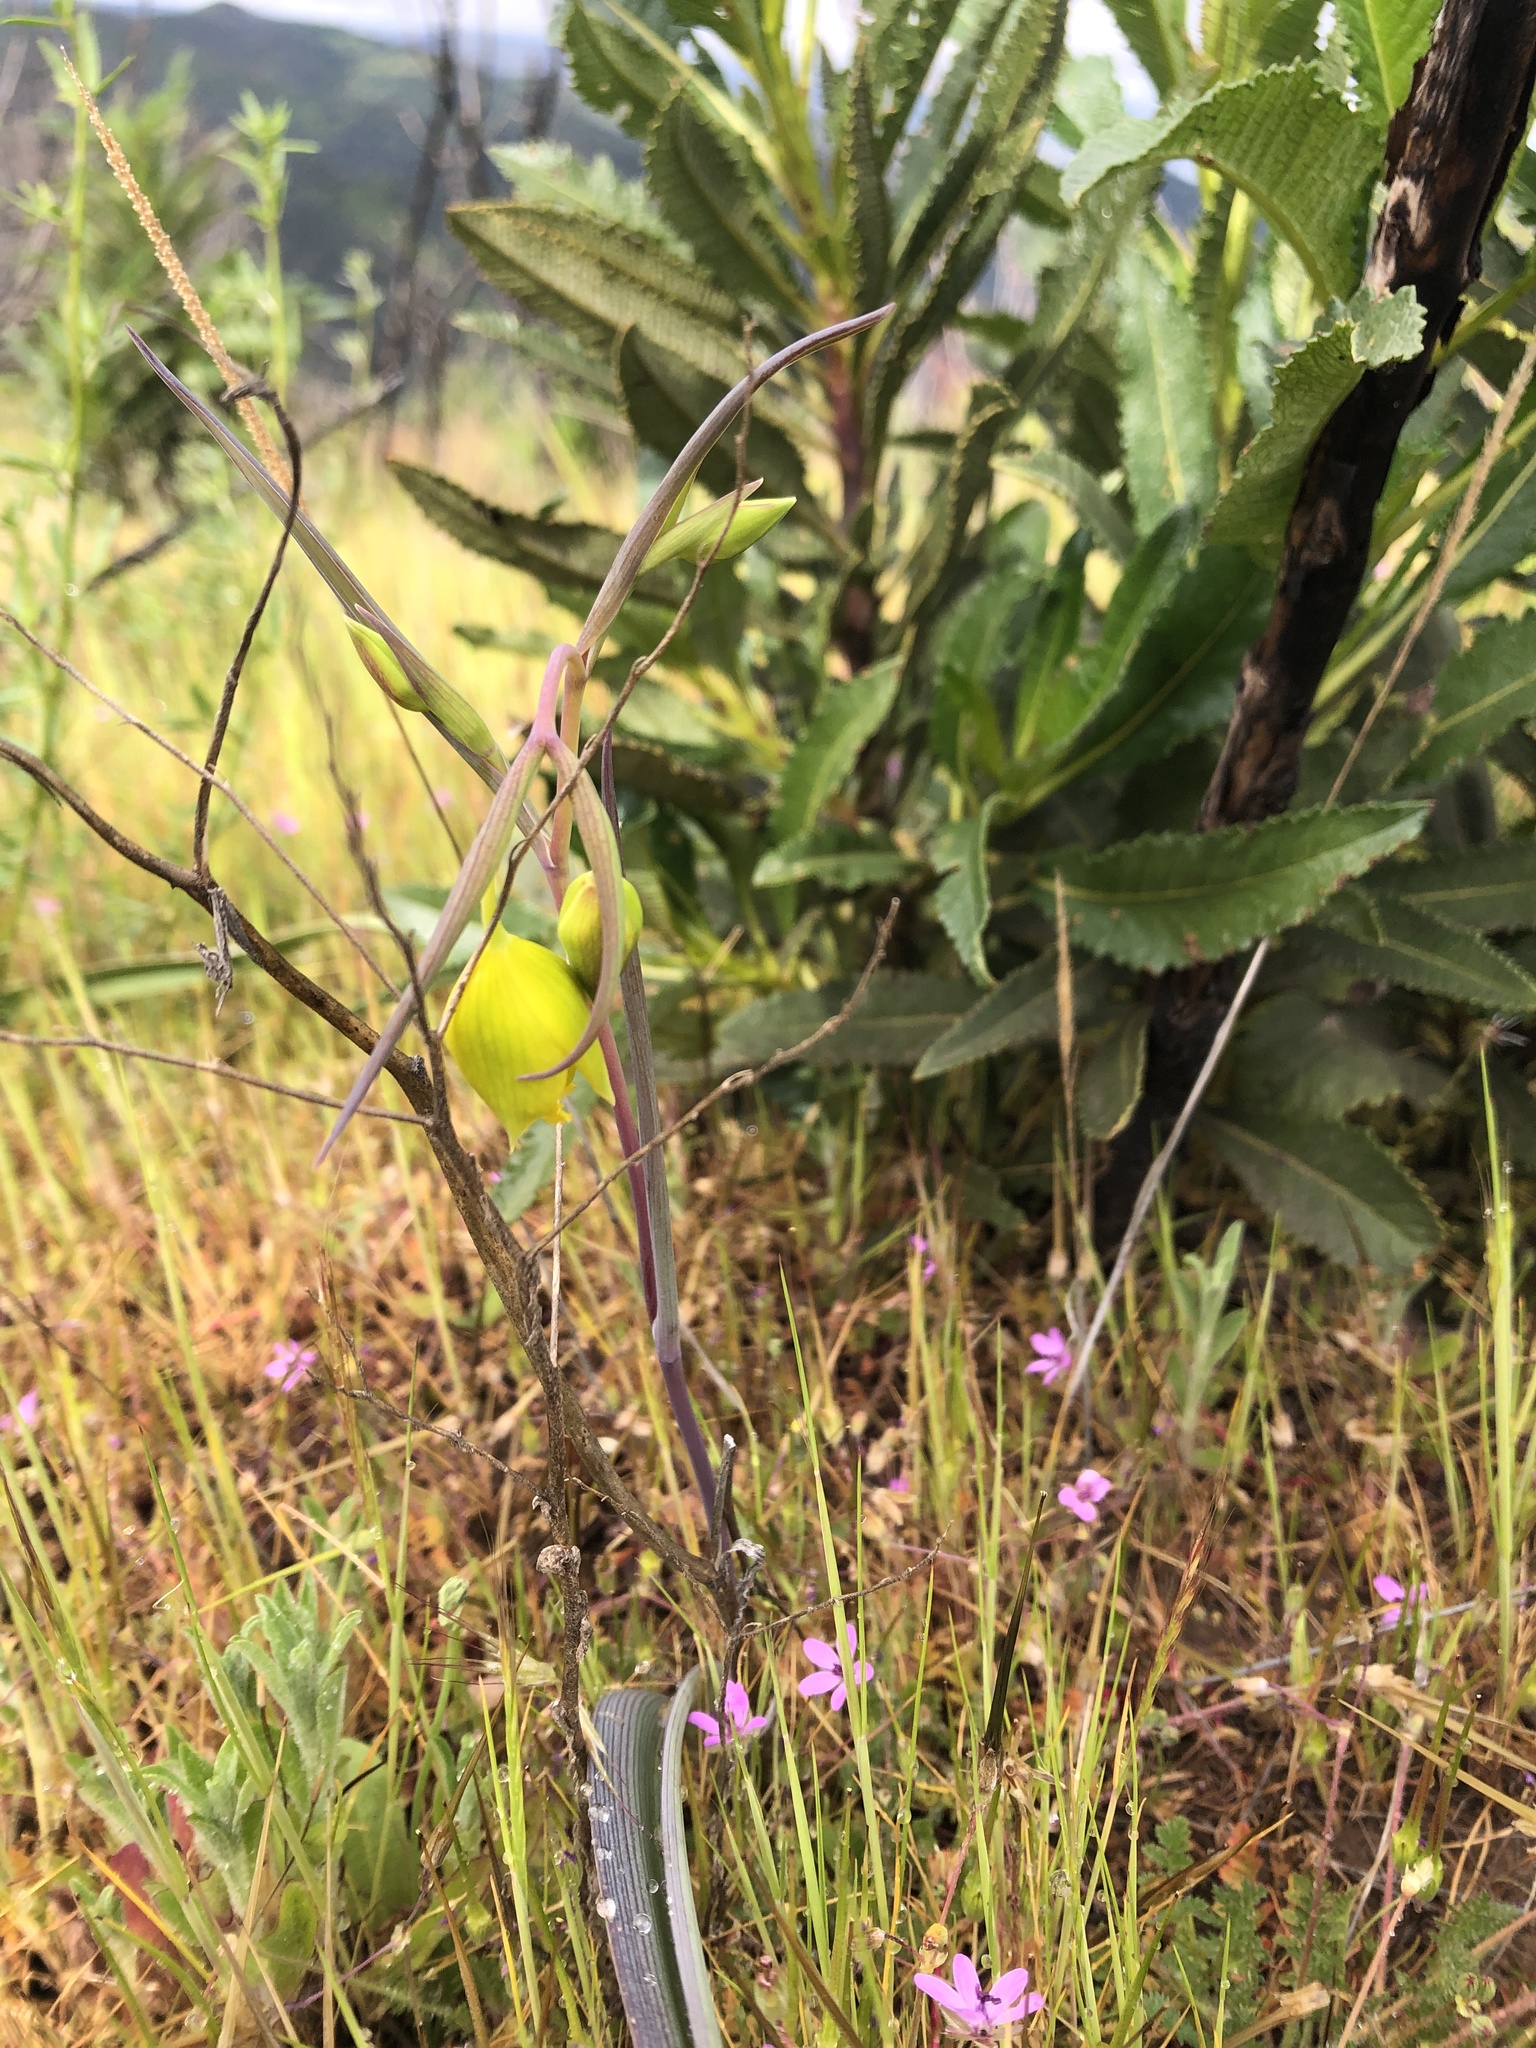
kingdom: Plantae
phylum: Tracheophyta
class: Liliopsida
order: Liliales
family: Liliaceae
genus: Calochortus
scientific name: Calochortus amabilis
